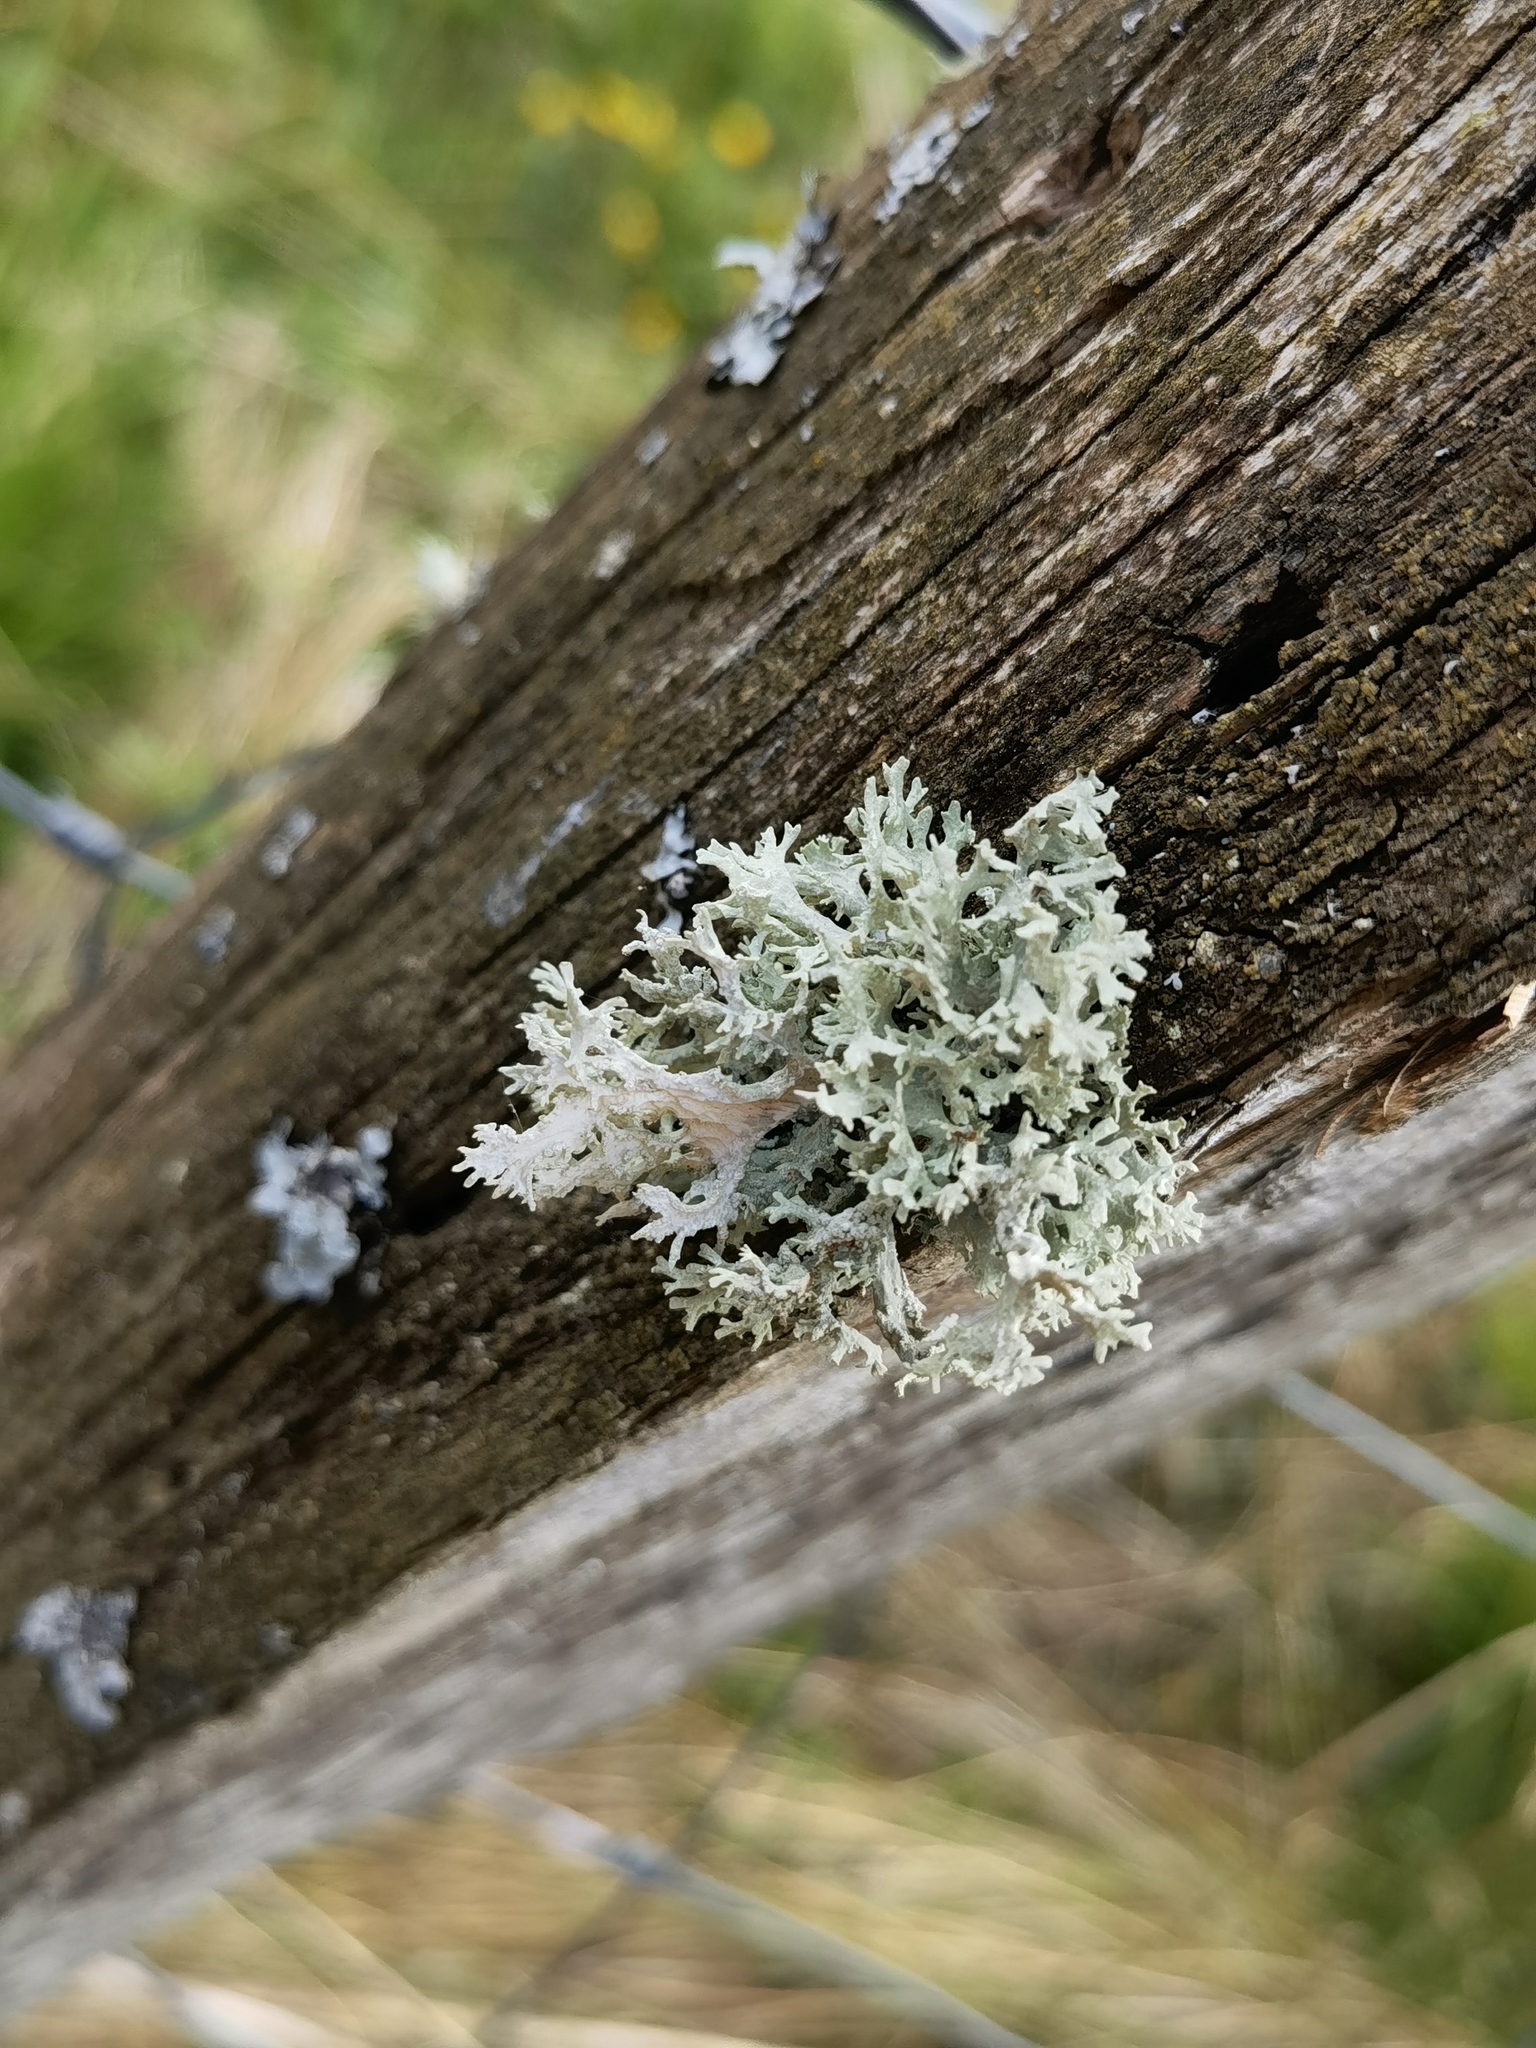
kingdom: Fungi
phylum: Ascomycota
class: Lecanoromycetes
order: Lecanorales
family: Parmeliaceae
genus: Evernia
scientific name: Evernia prunastri
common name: Oak moss
